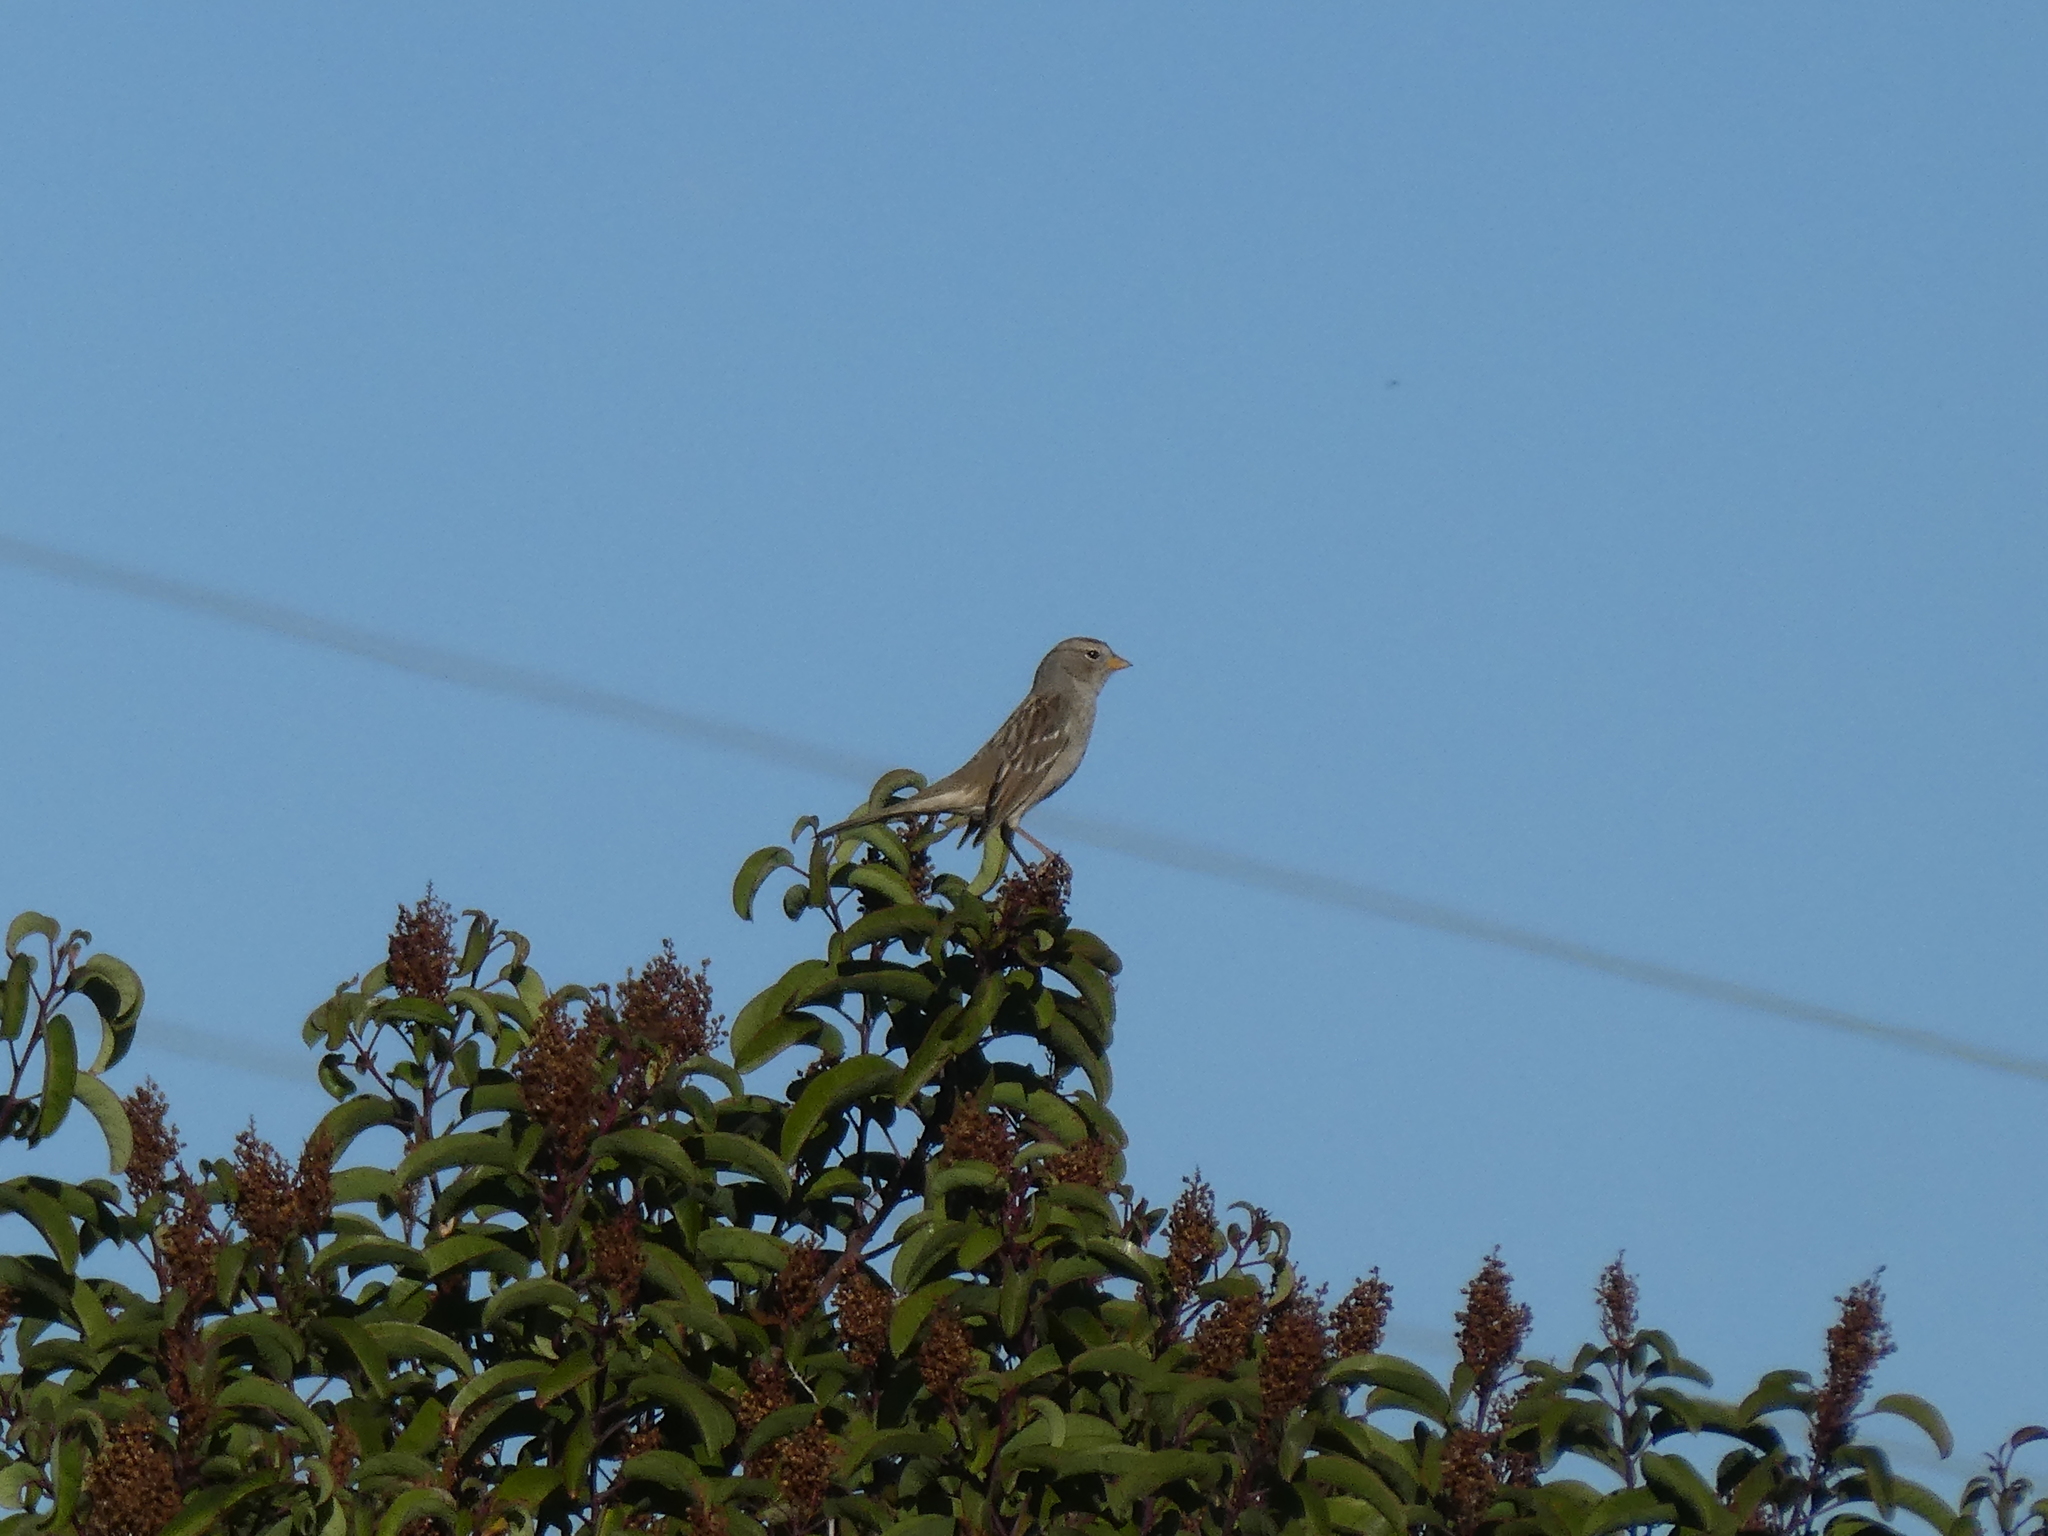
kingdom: Animalia
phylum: Chordata
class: Aves
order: Passeriformes
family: Passerellidae
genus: Zonotrichia
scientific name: Zonotrichia leucophrys
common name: White-crowned sparrow
